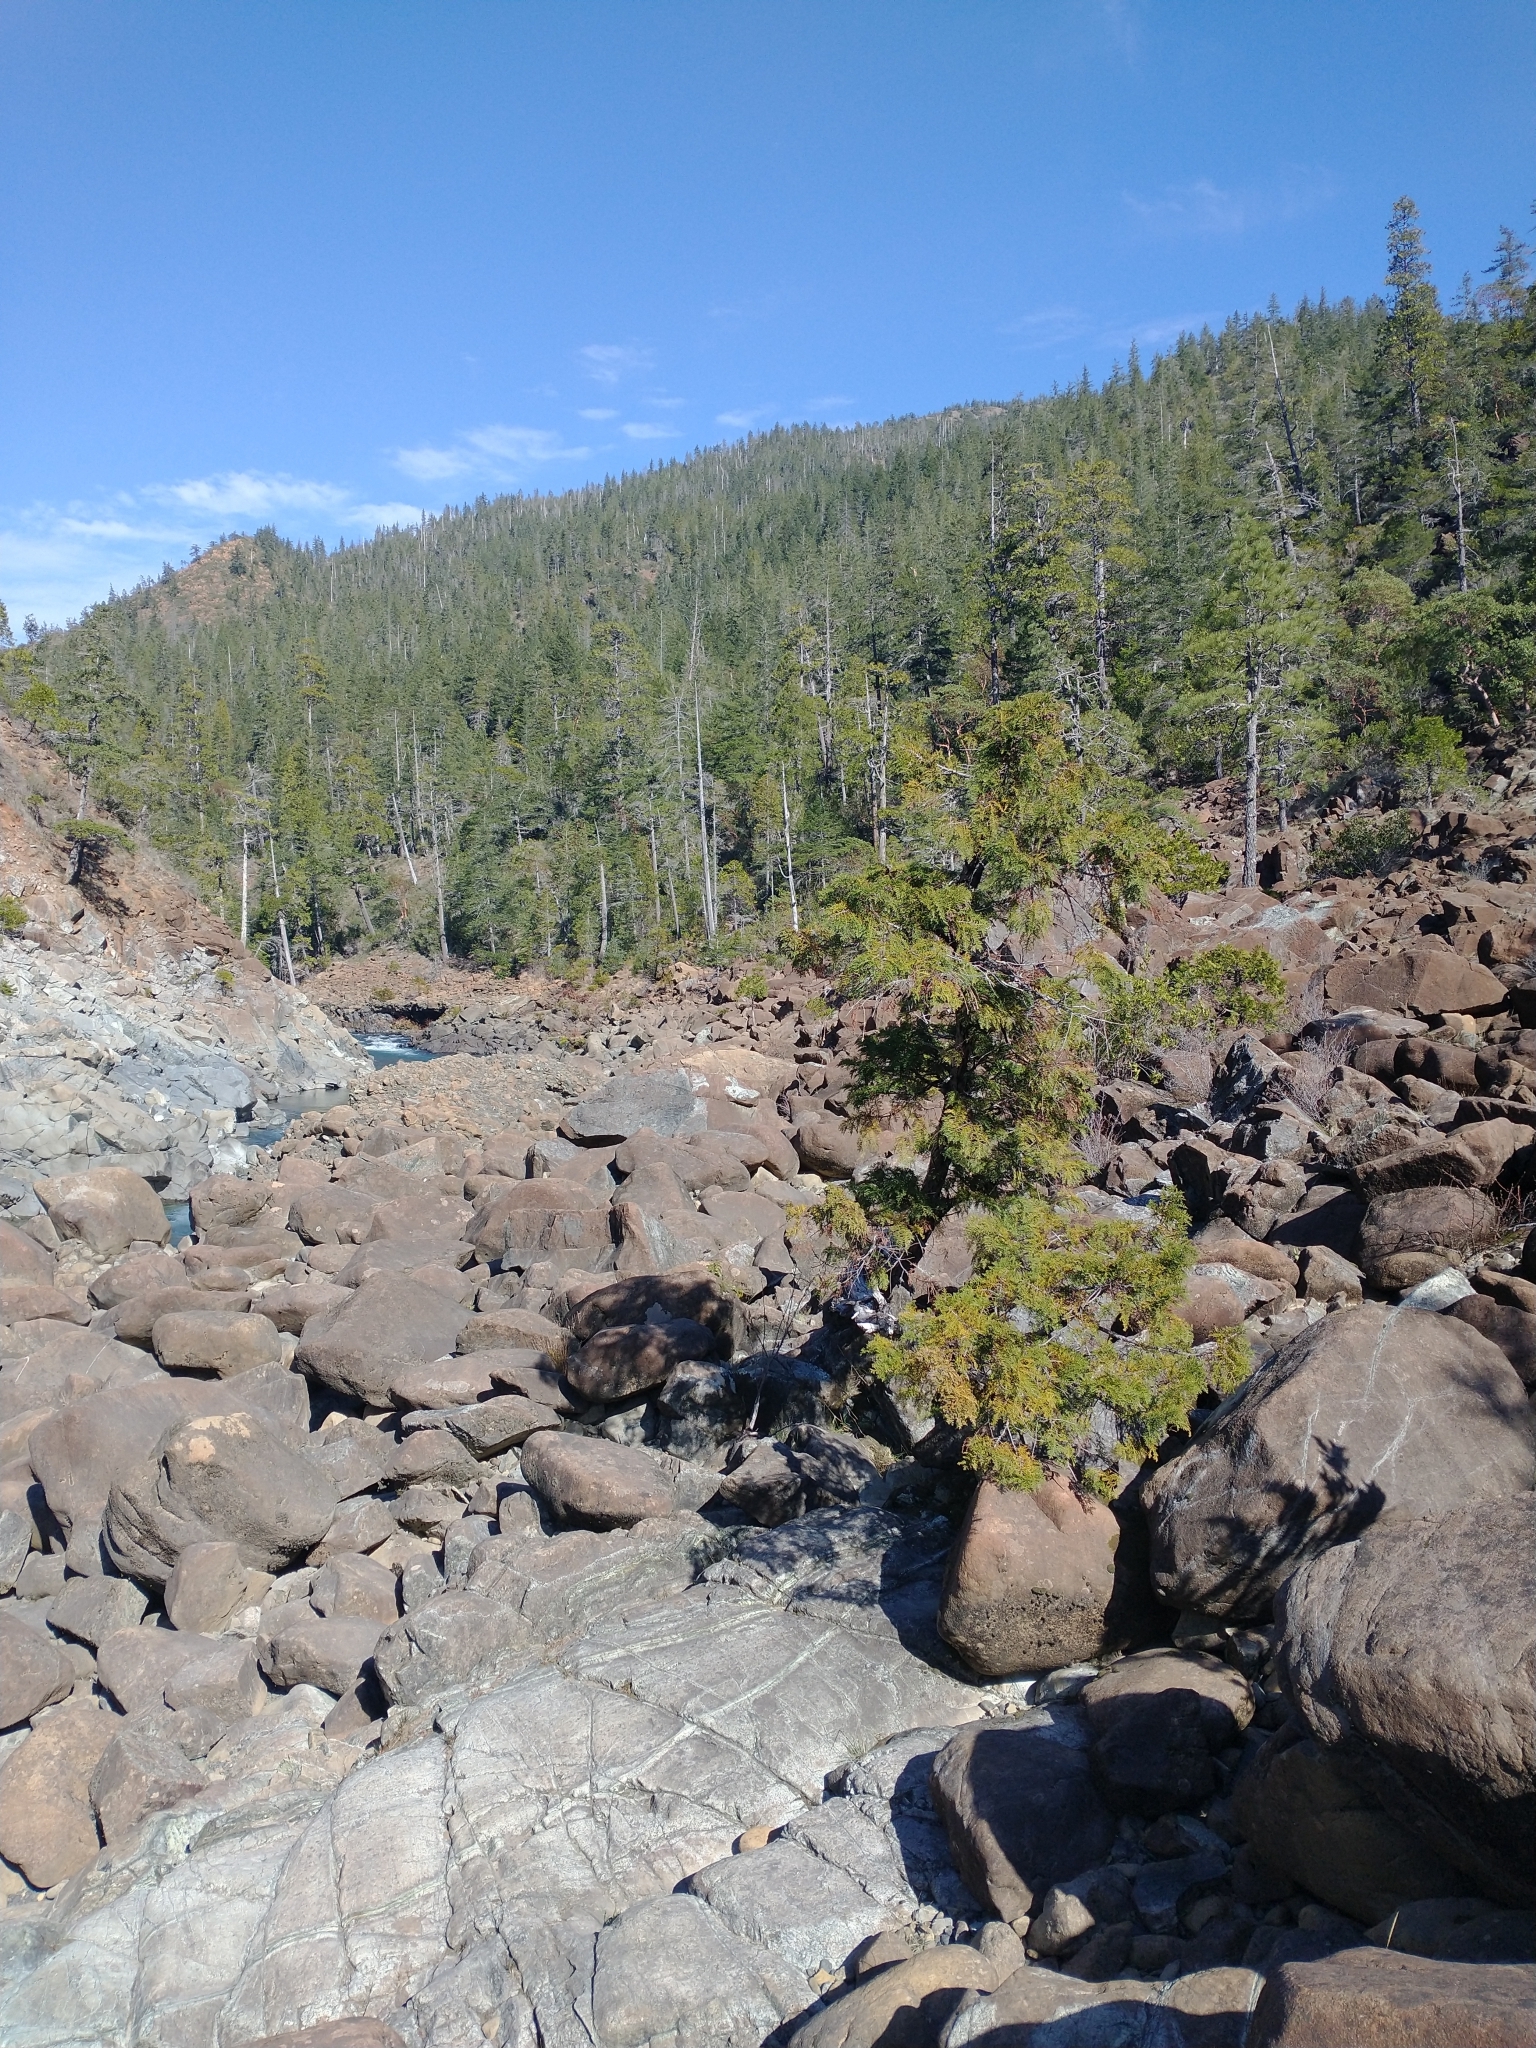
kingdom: Plantae
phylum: Tracheophyta
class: Pinopsida
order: Pinales
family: Cupressaceae
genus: Chamaecyparis
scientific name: Chamaecyparis lawsoniana
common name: Lawson's cypress
